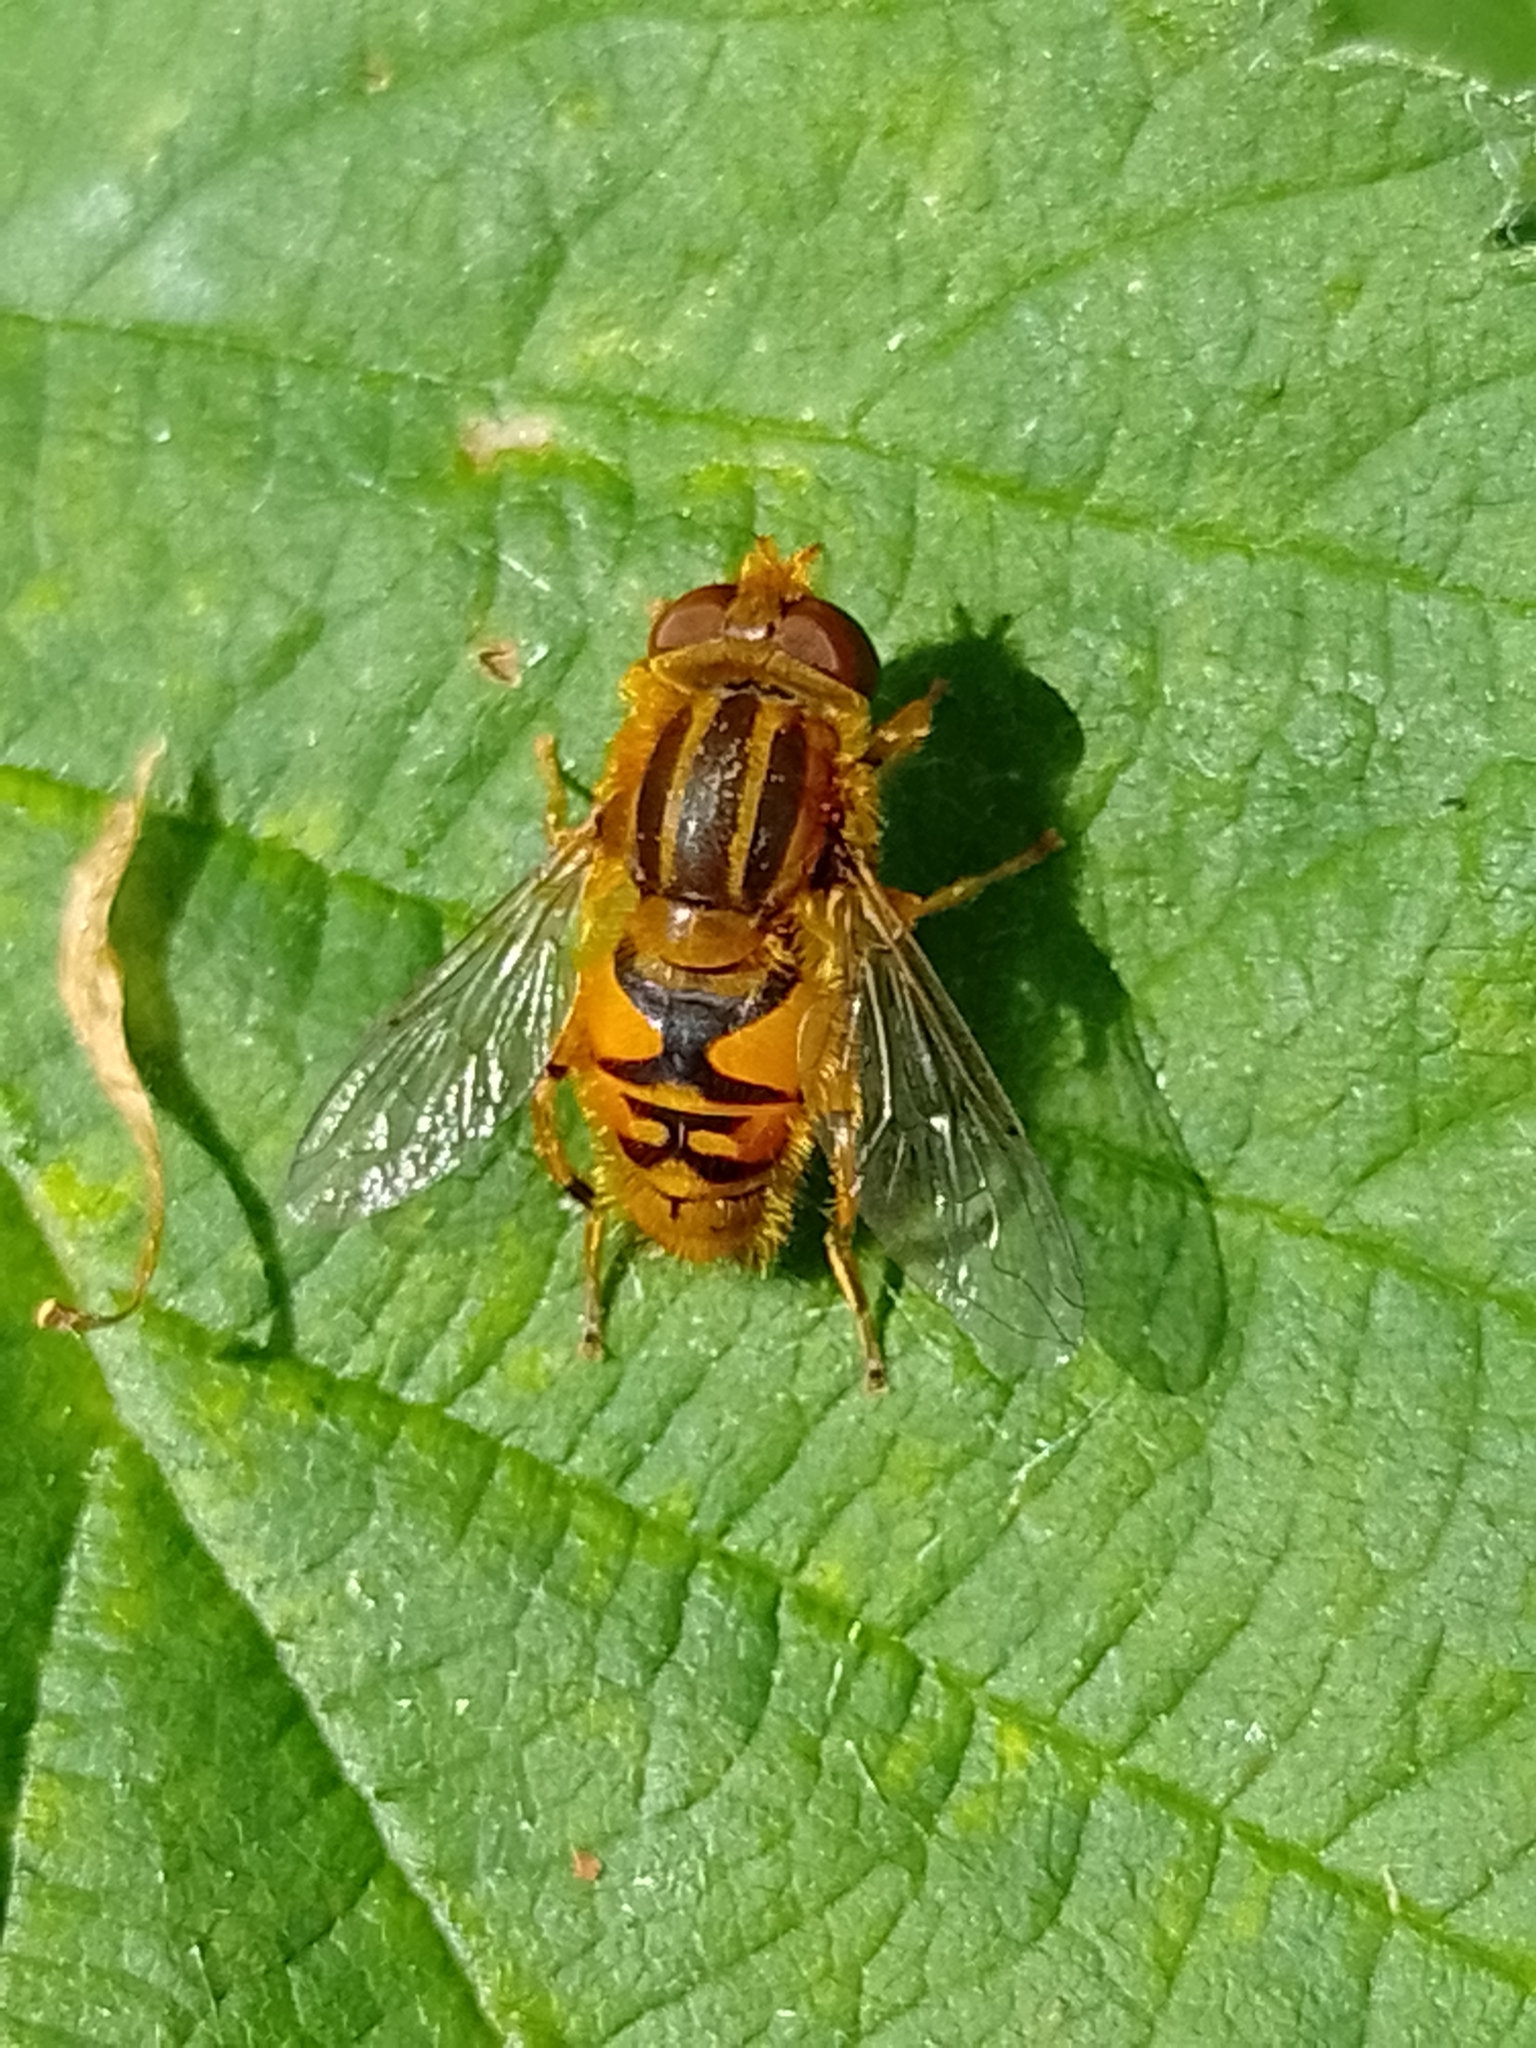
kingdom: Animalia
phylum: Arthropoda
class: Insecta
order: Diptera
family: Syrphidae
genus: Parhelophilus
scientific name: Parhelophilus
